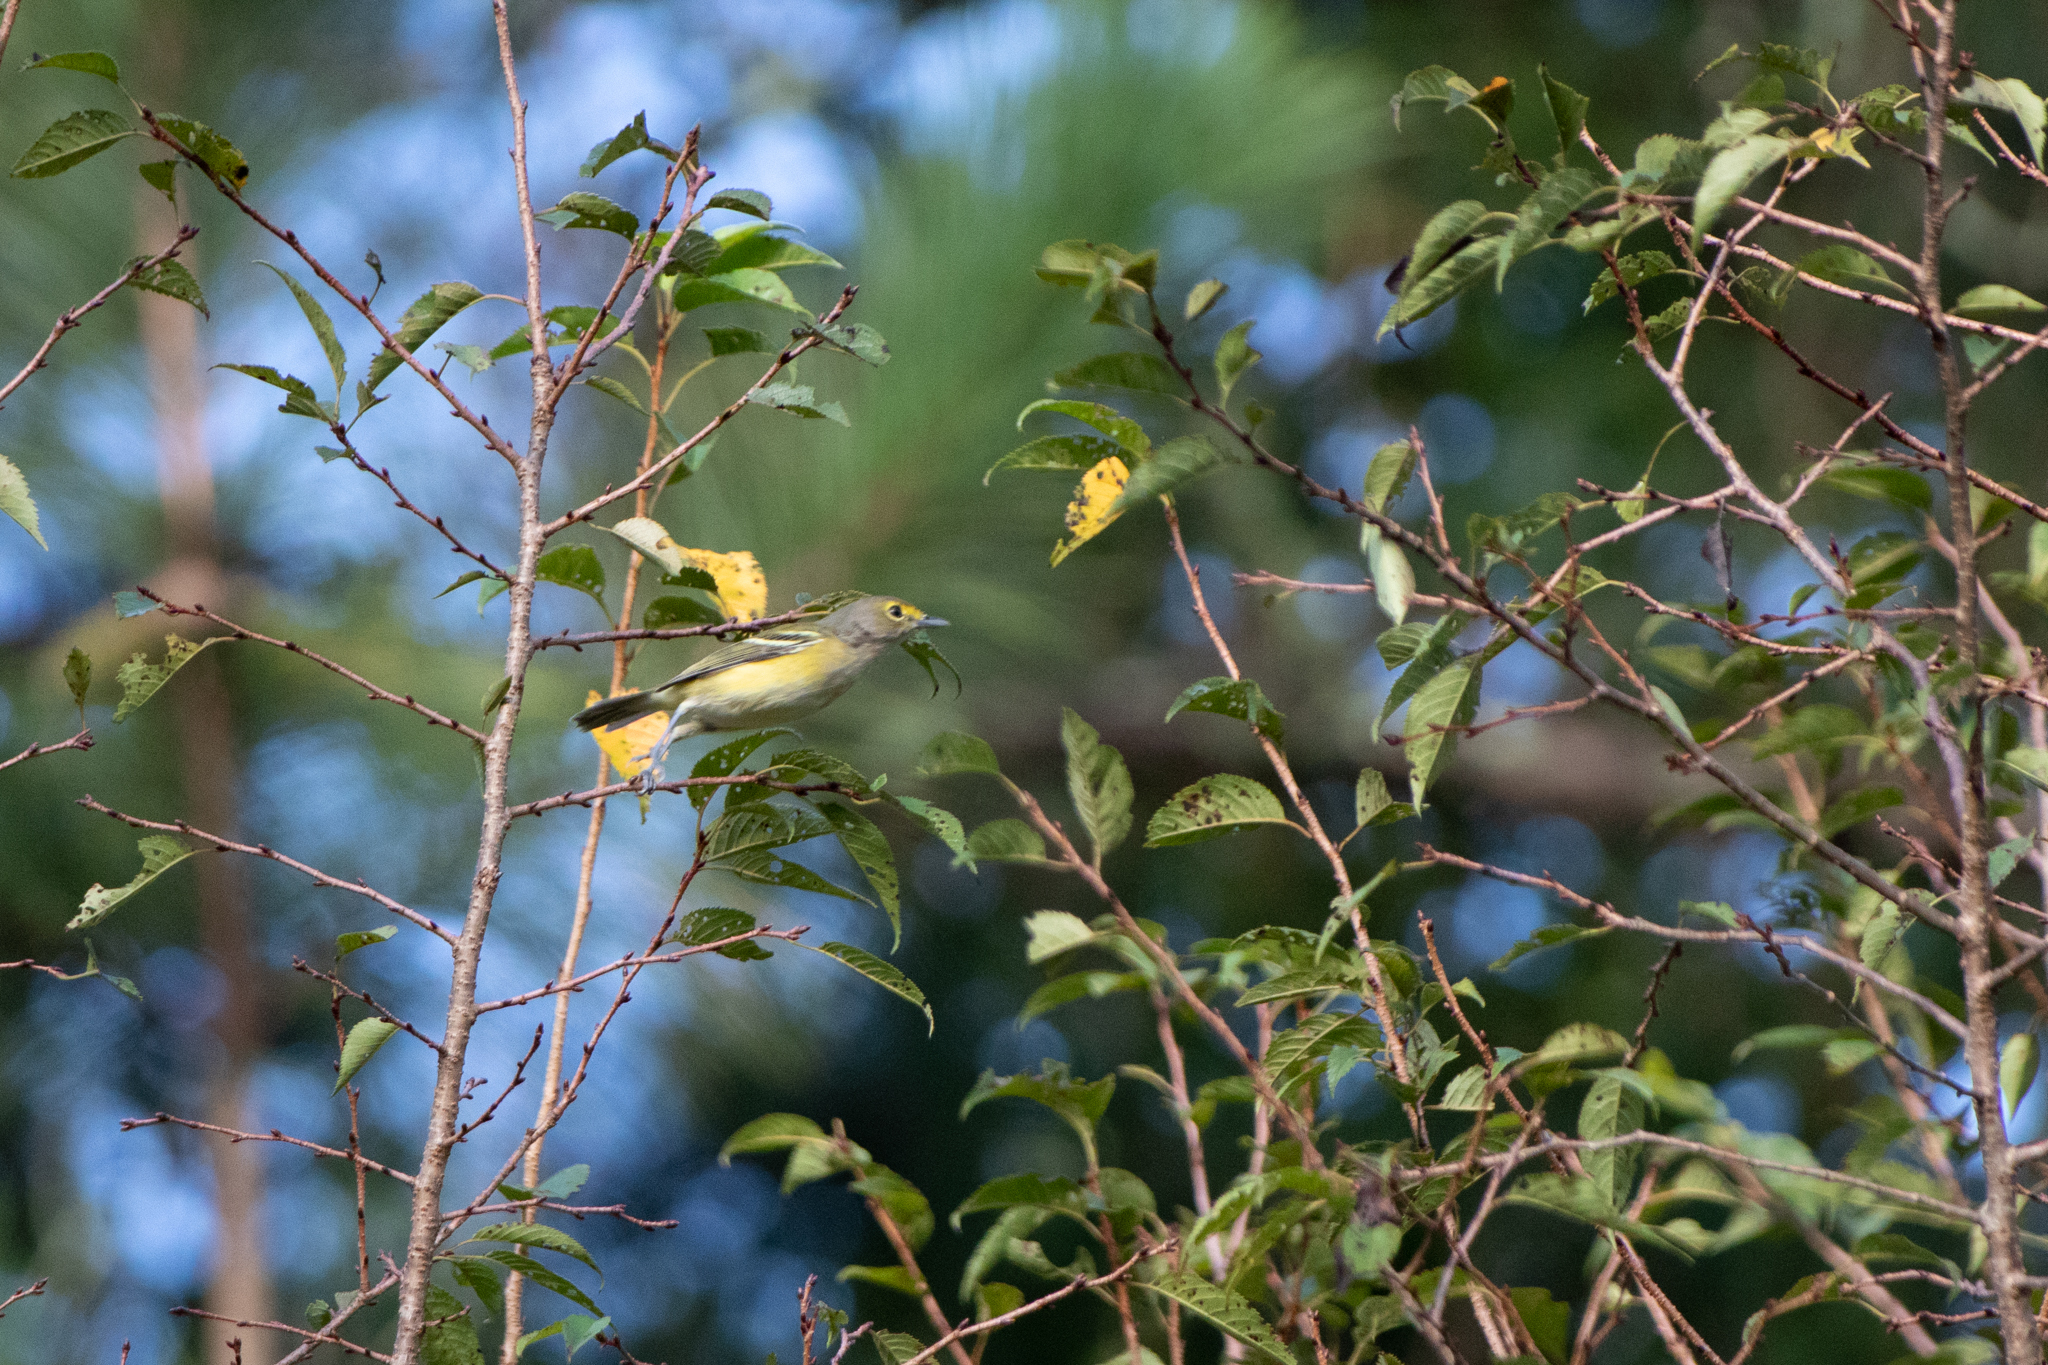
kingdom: Animalia
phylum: Chordata
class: Aves
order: Passeriformes
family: Vireonidae
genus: Vireo
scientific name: Vireo griseus
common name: White-eyed vireo
